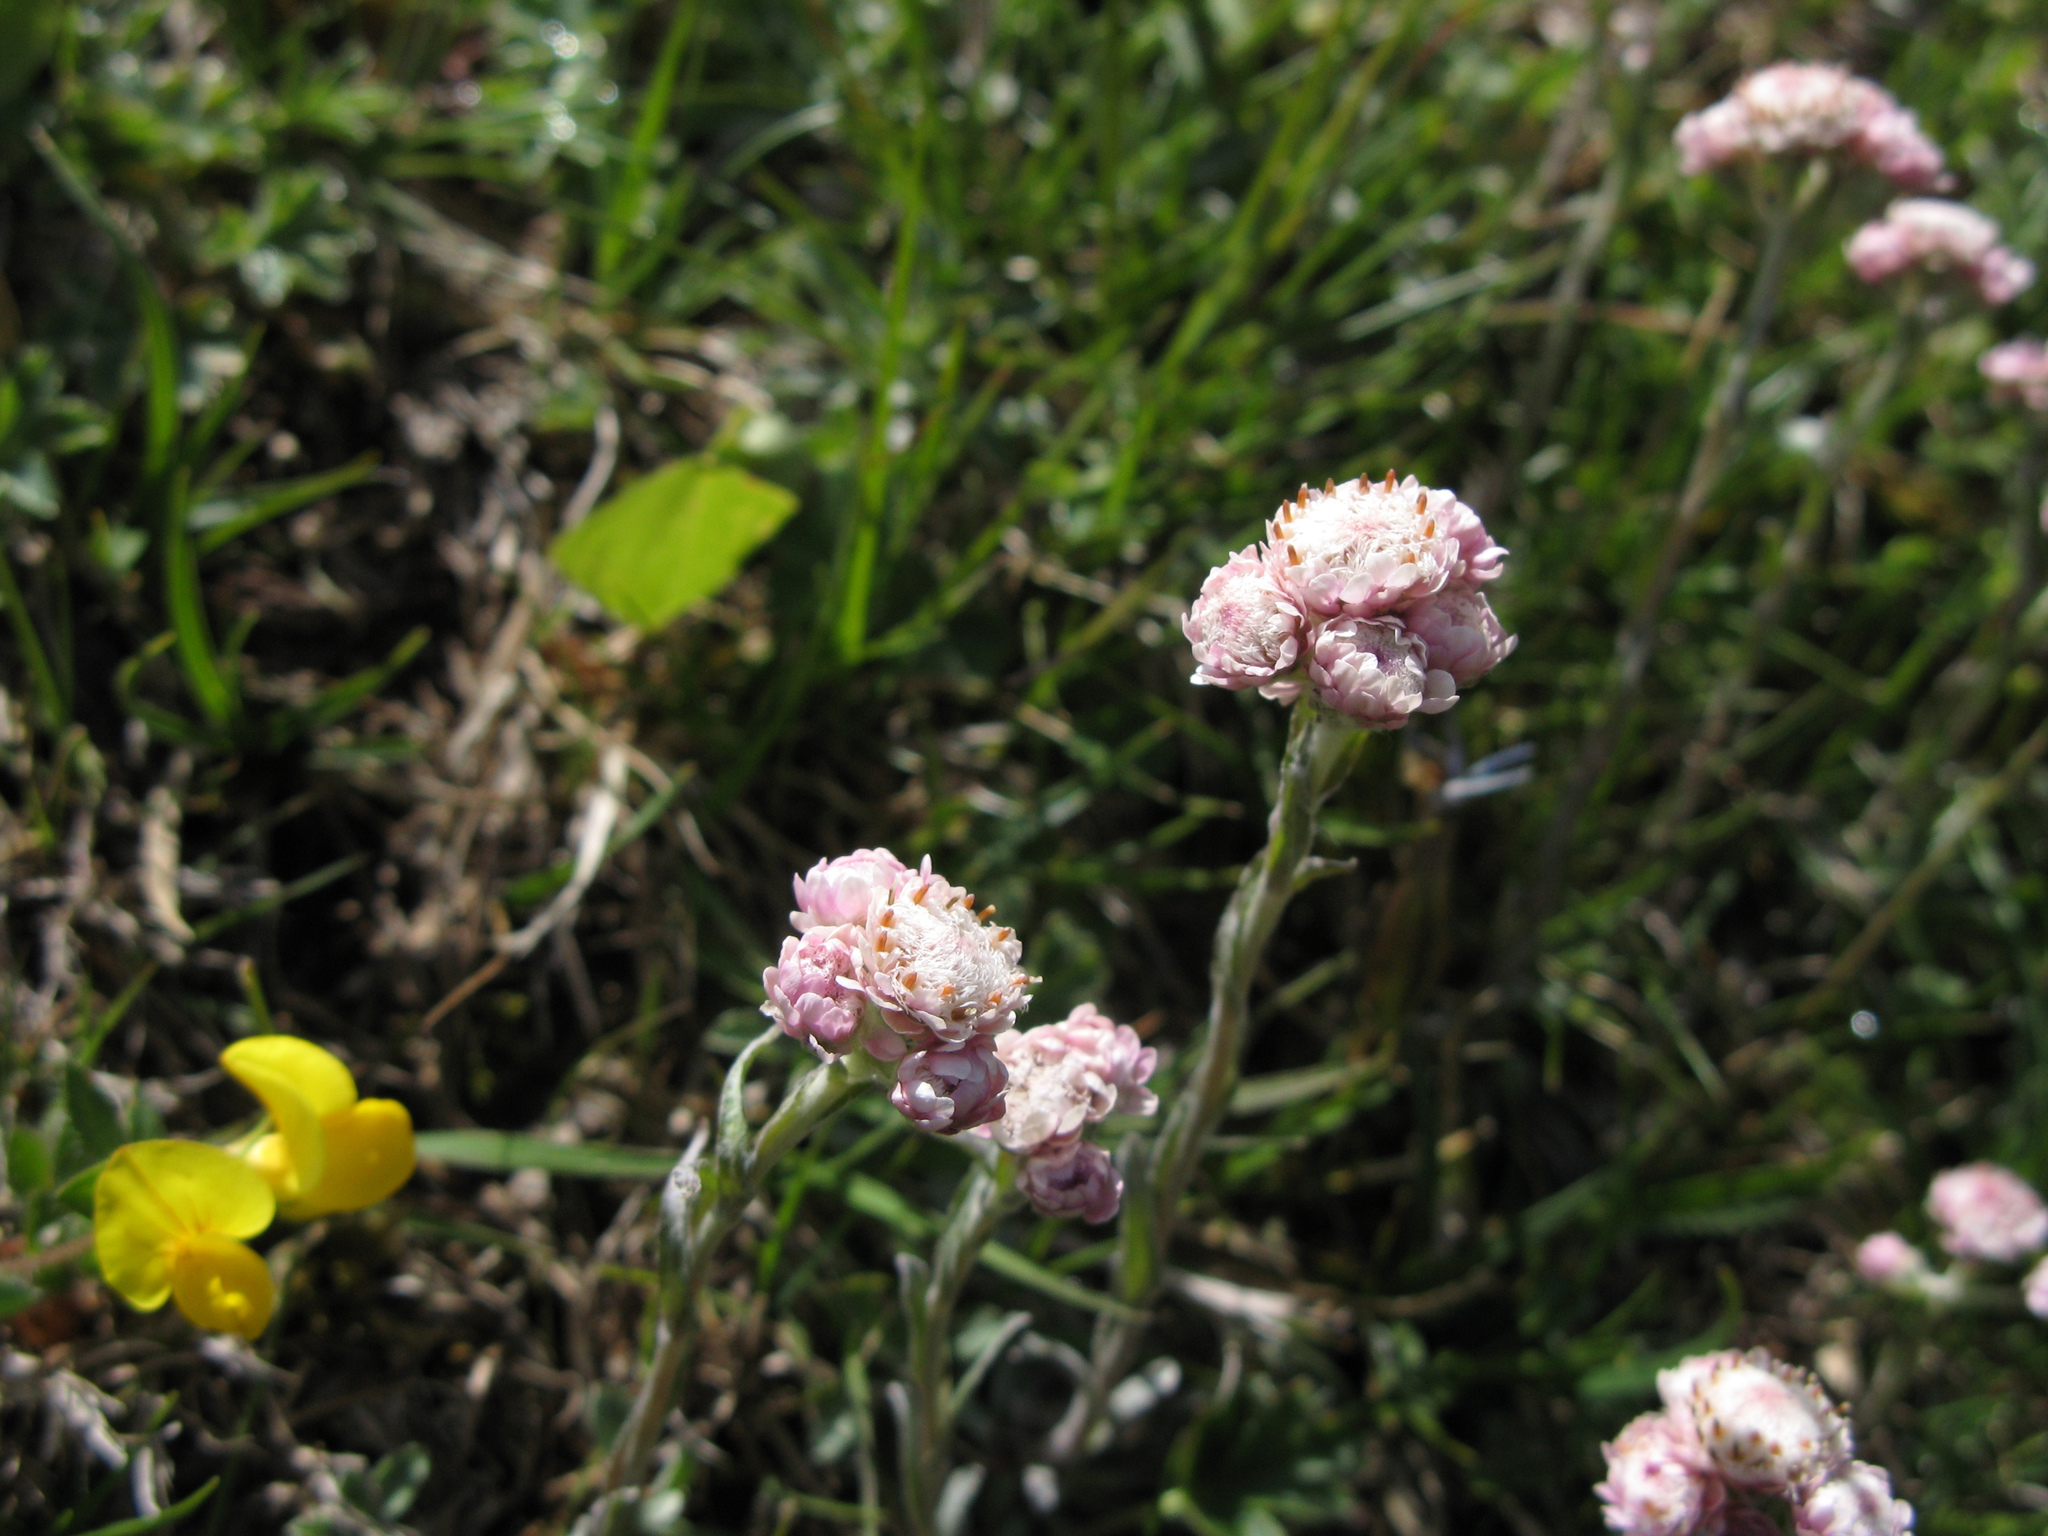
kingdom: Plantae
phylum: Tracheophyta
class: Magnoliopsida
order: Asterales
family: Asteraceae
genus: Antennaria
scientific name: Antennaria dioica
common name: Mountain everlasting
